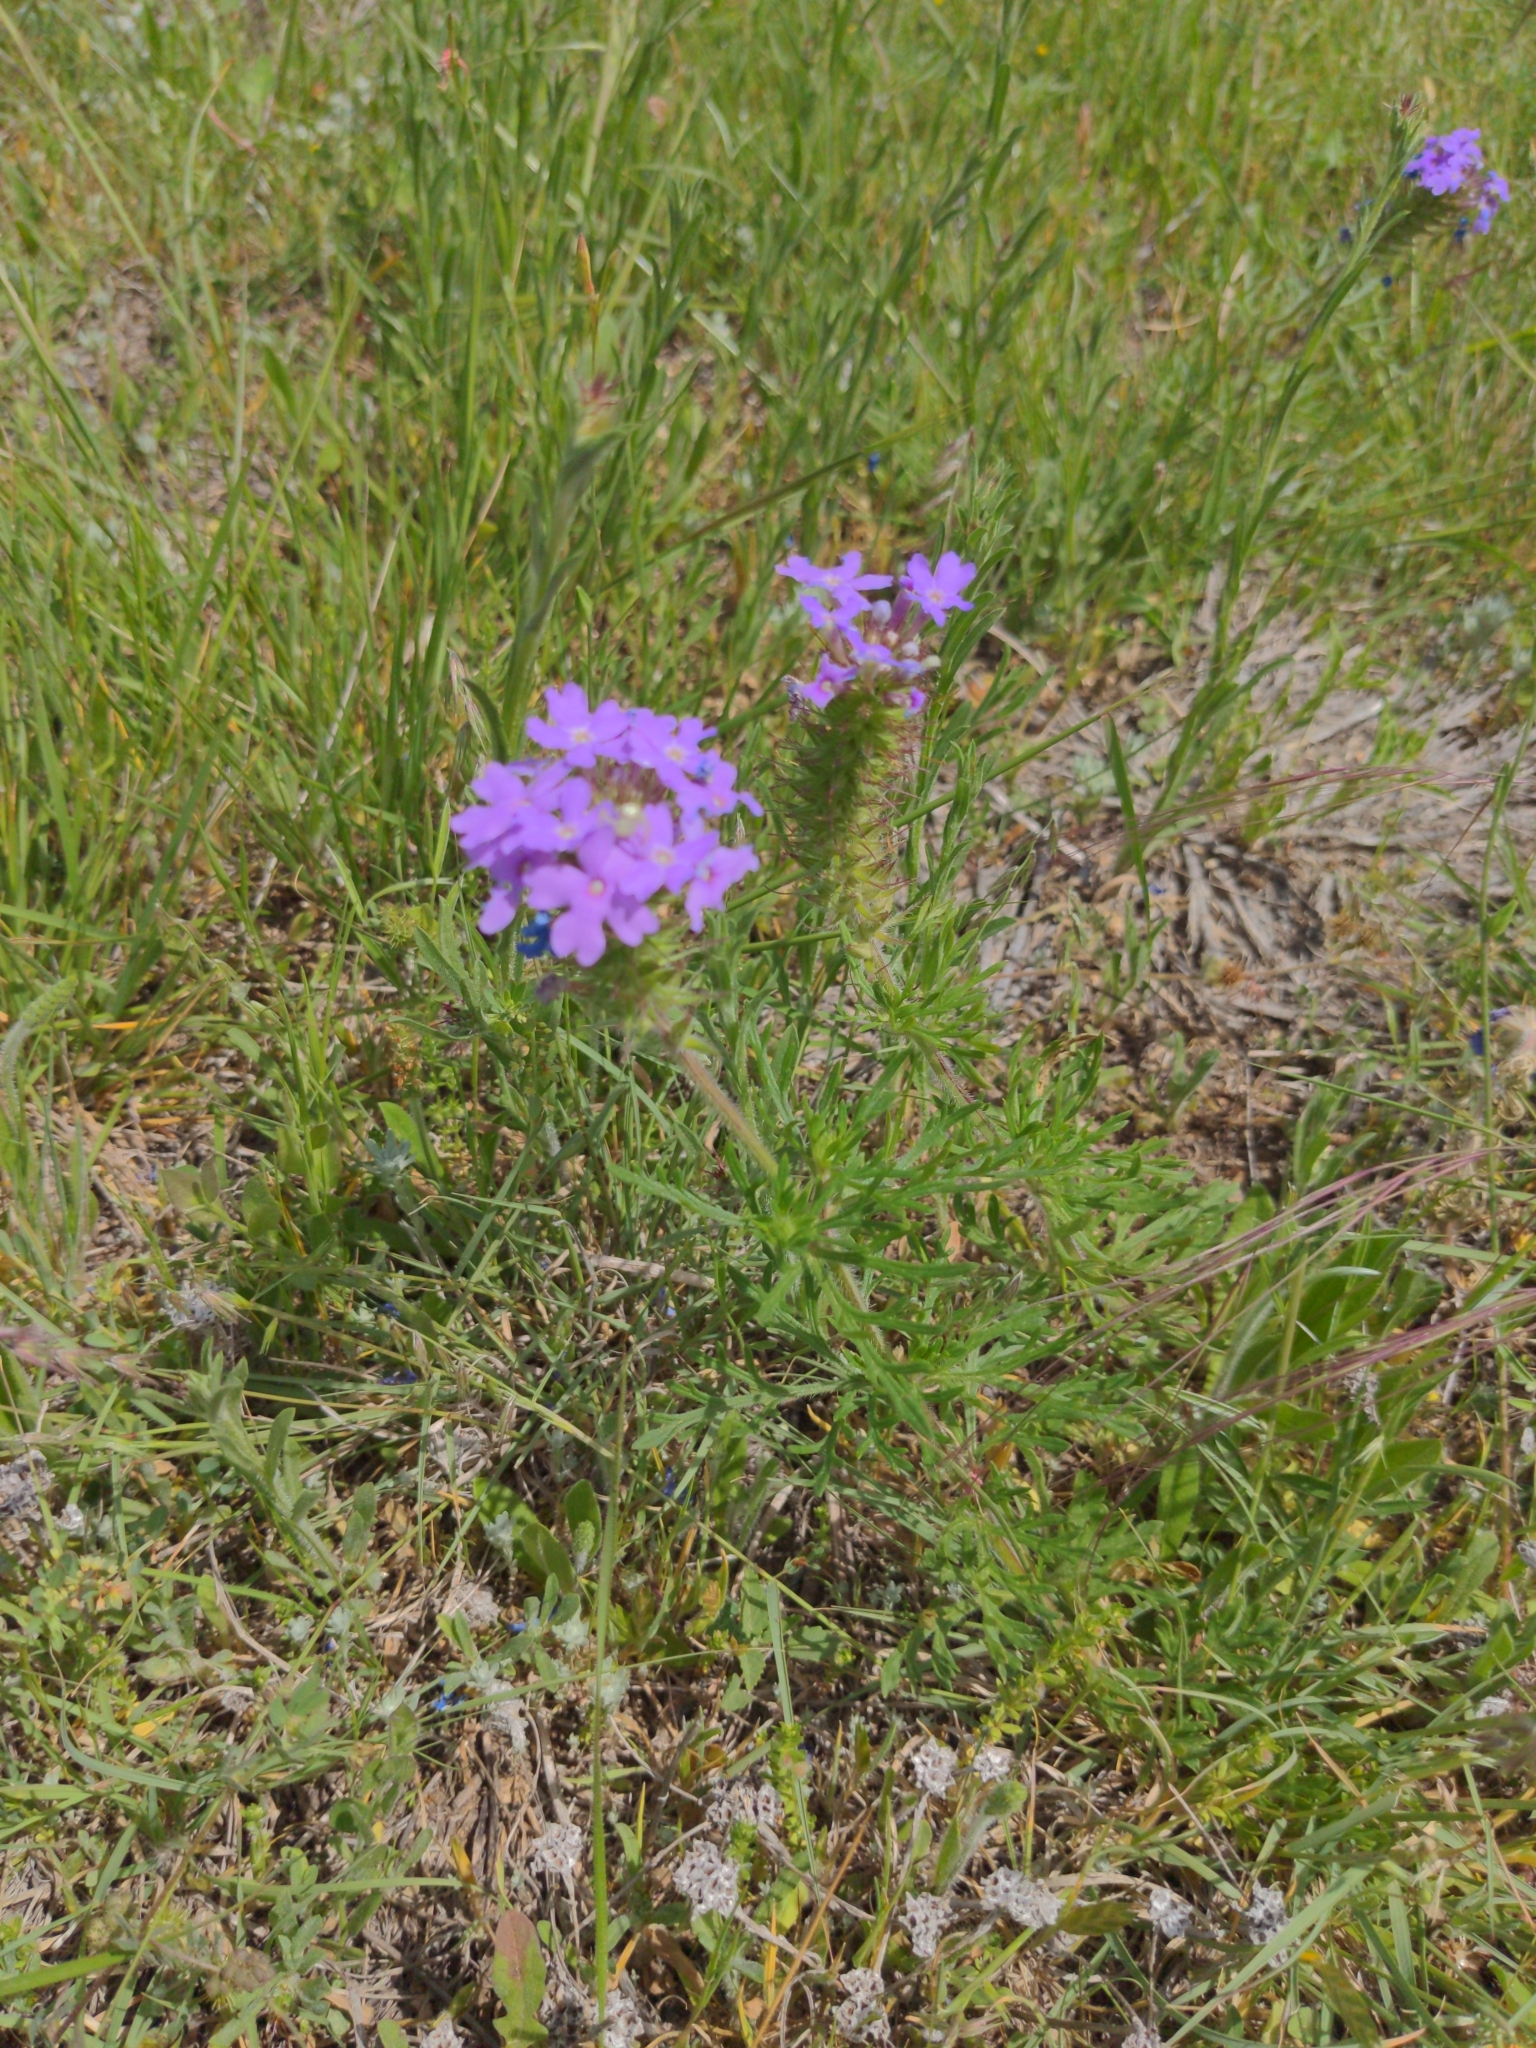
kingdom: Plantae
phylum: Tracheophyta
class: Magnoliopsida
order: Lamiales
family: Verbenaceae
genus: Verbena
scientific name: Verbena bipinnatifida
